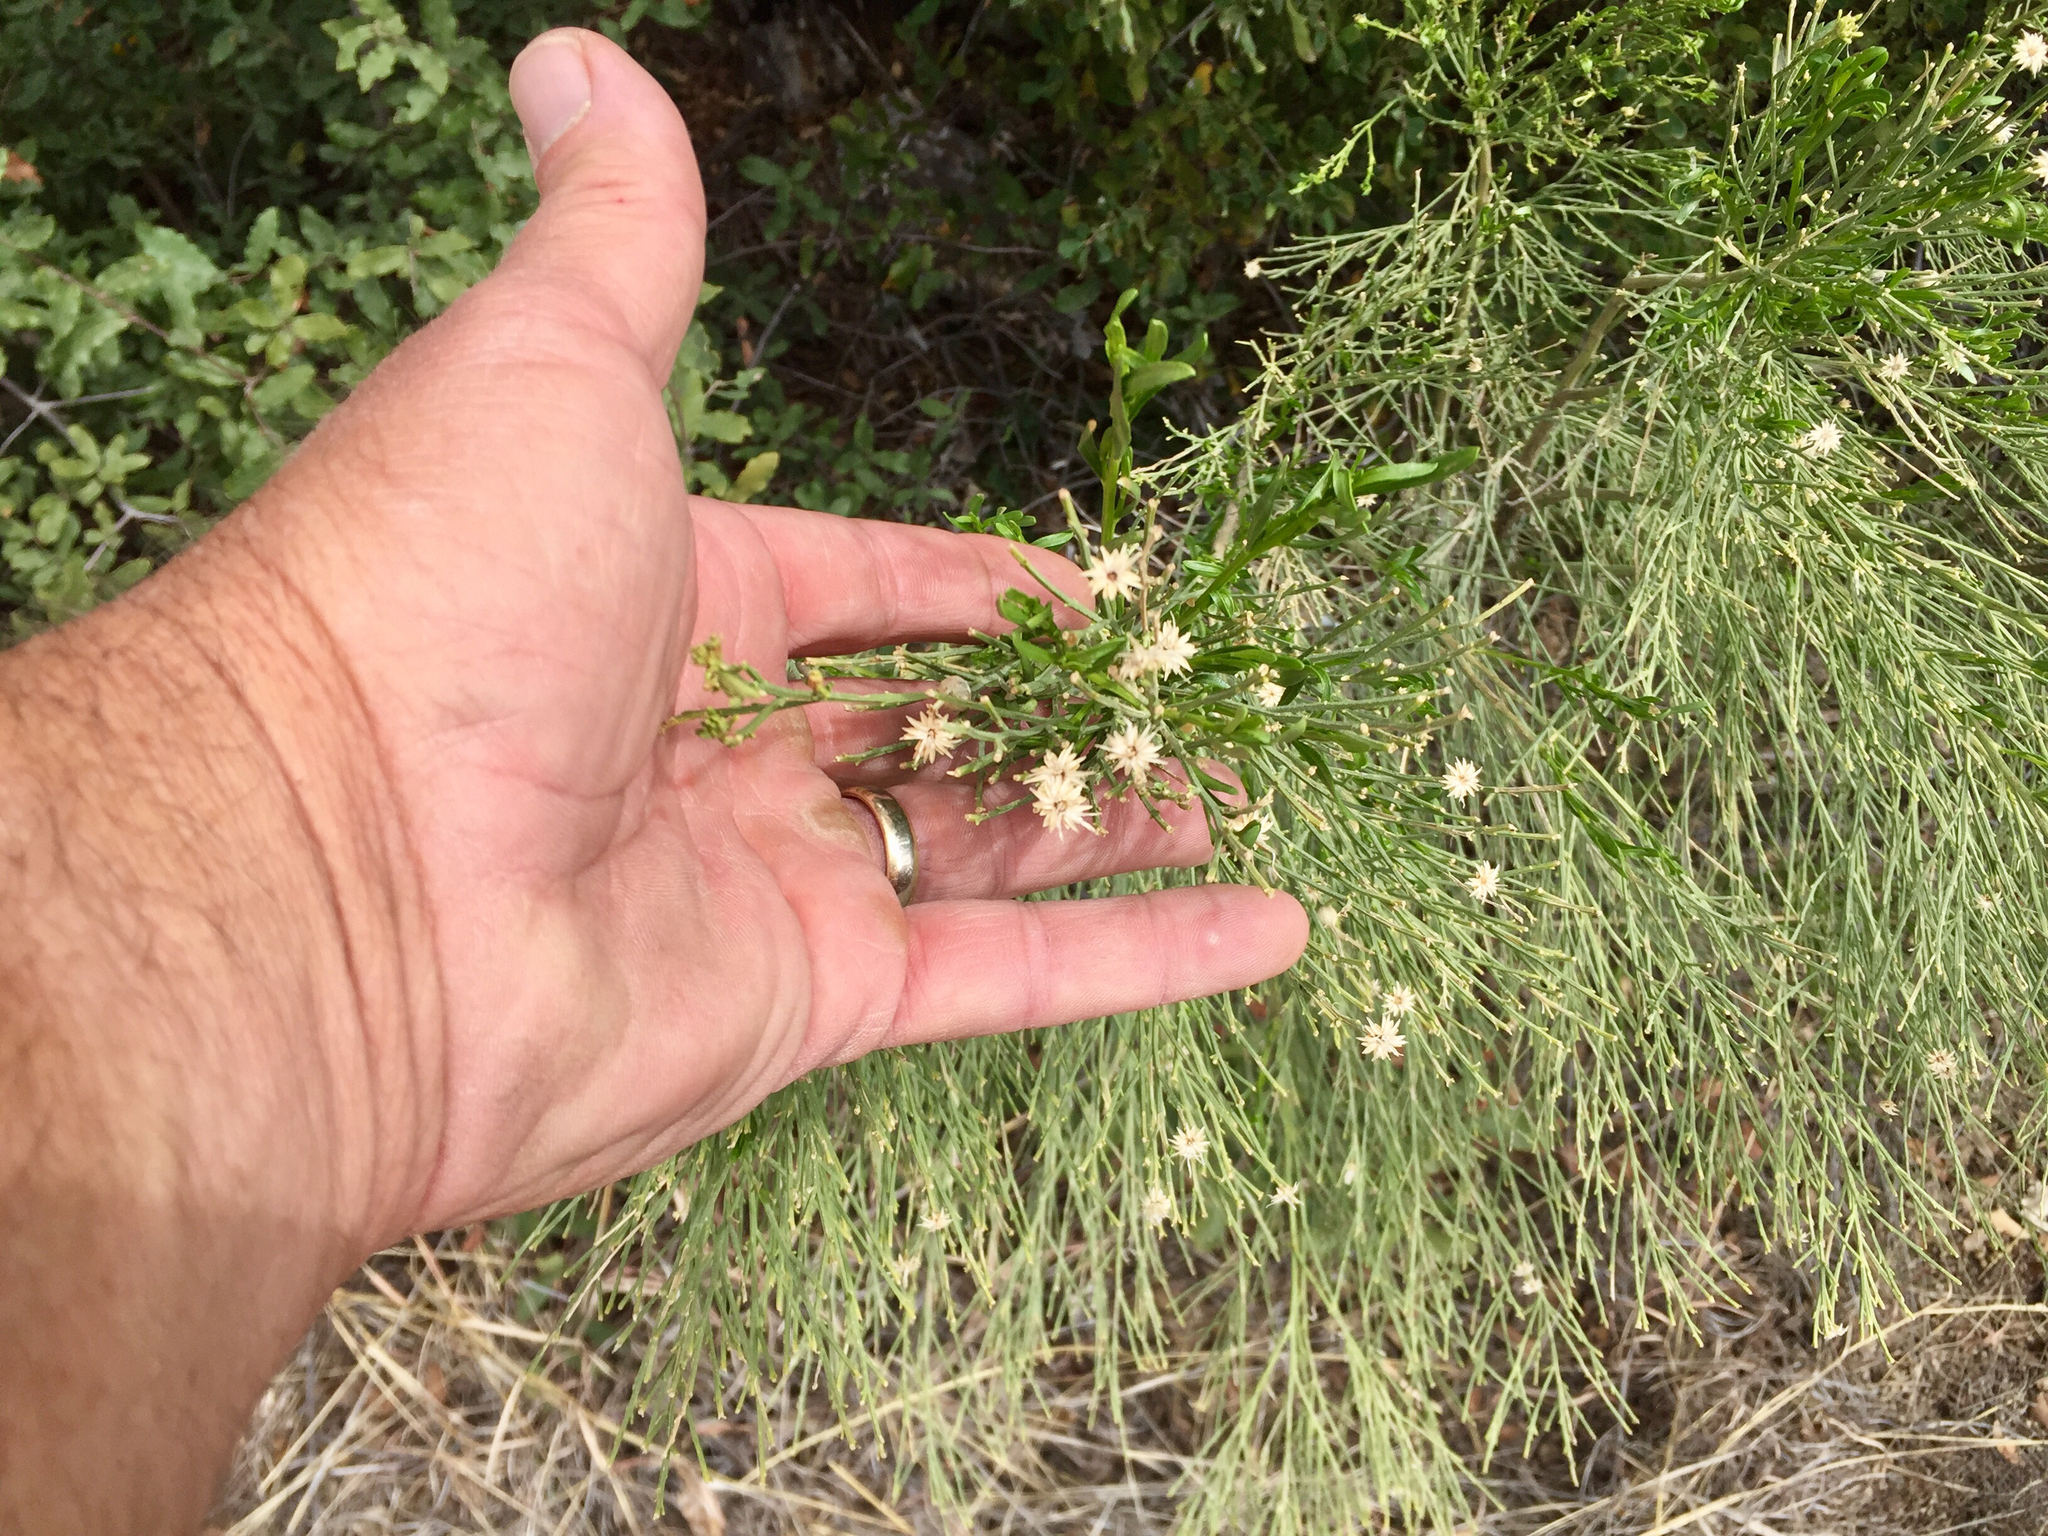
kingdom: Plantae
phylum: Tracheophyta
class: Magnoliopsida
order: Asterales
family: Asteraceae
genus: Baccharis
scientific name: Baccharis sarothroides
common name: Desert-broom
